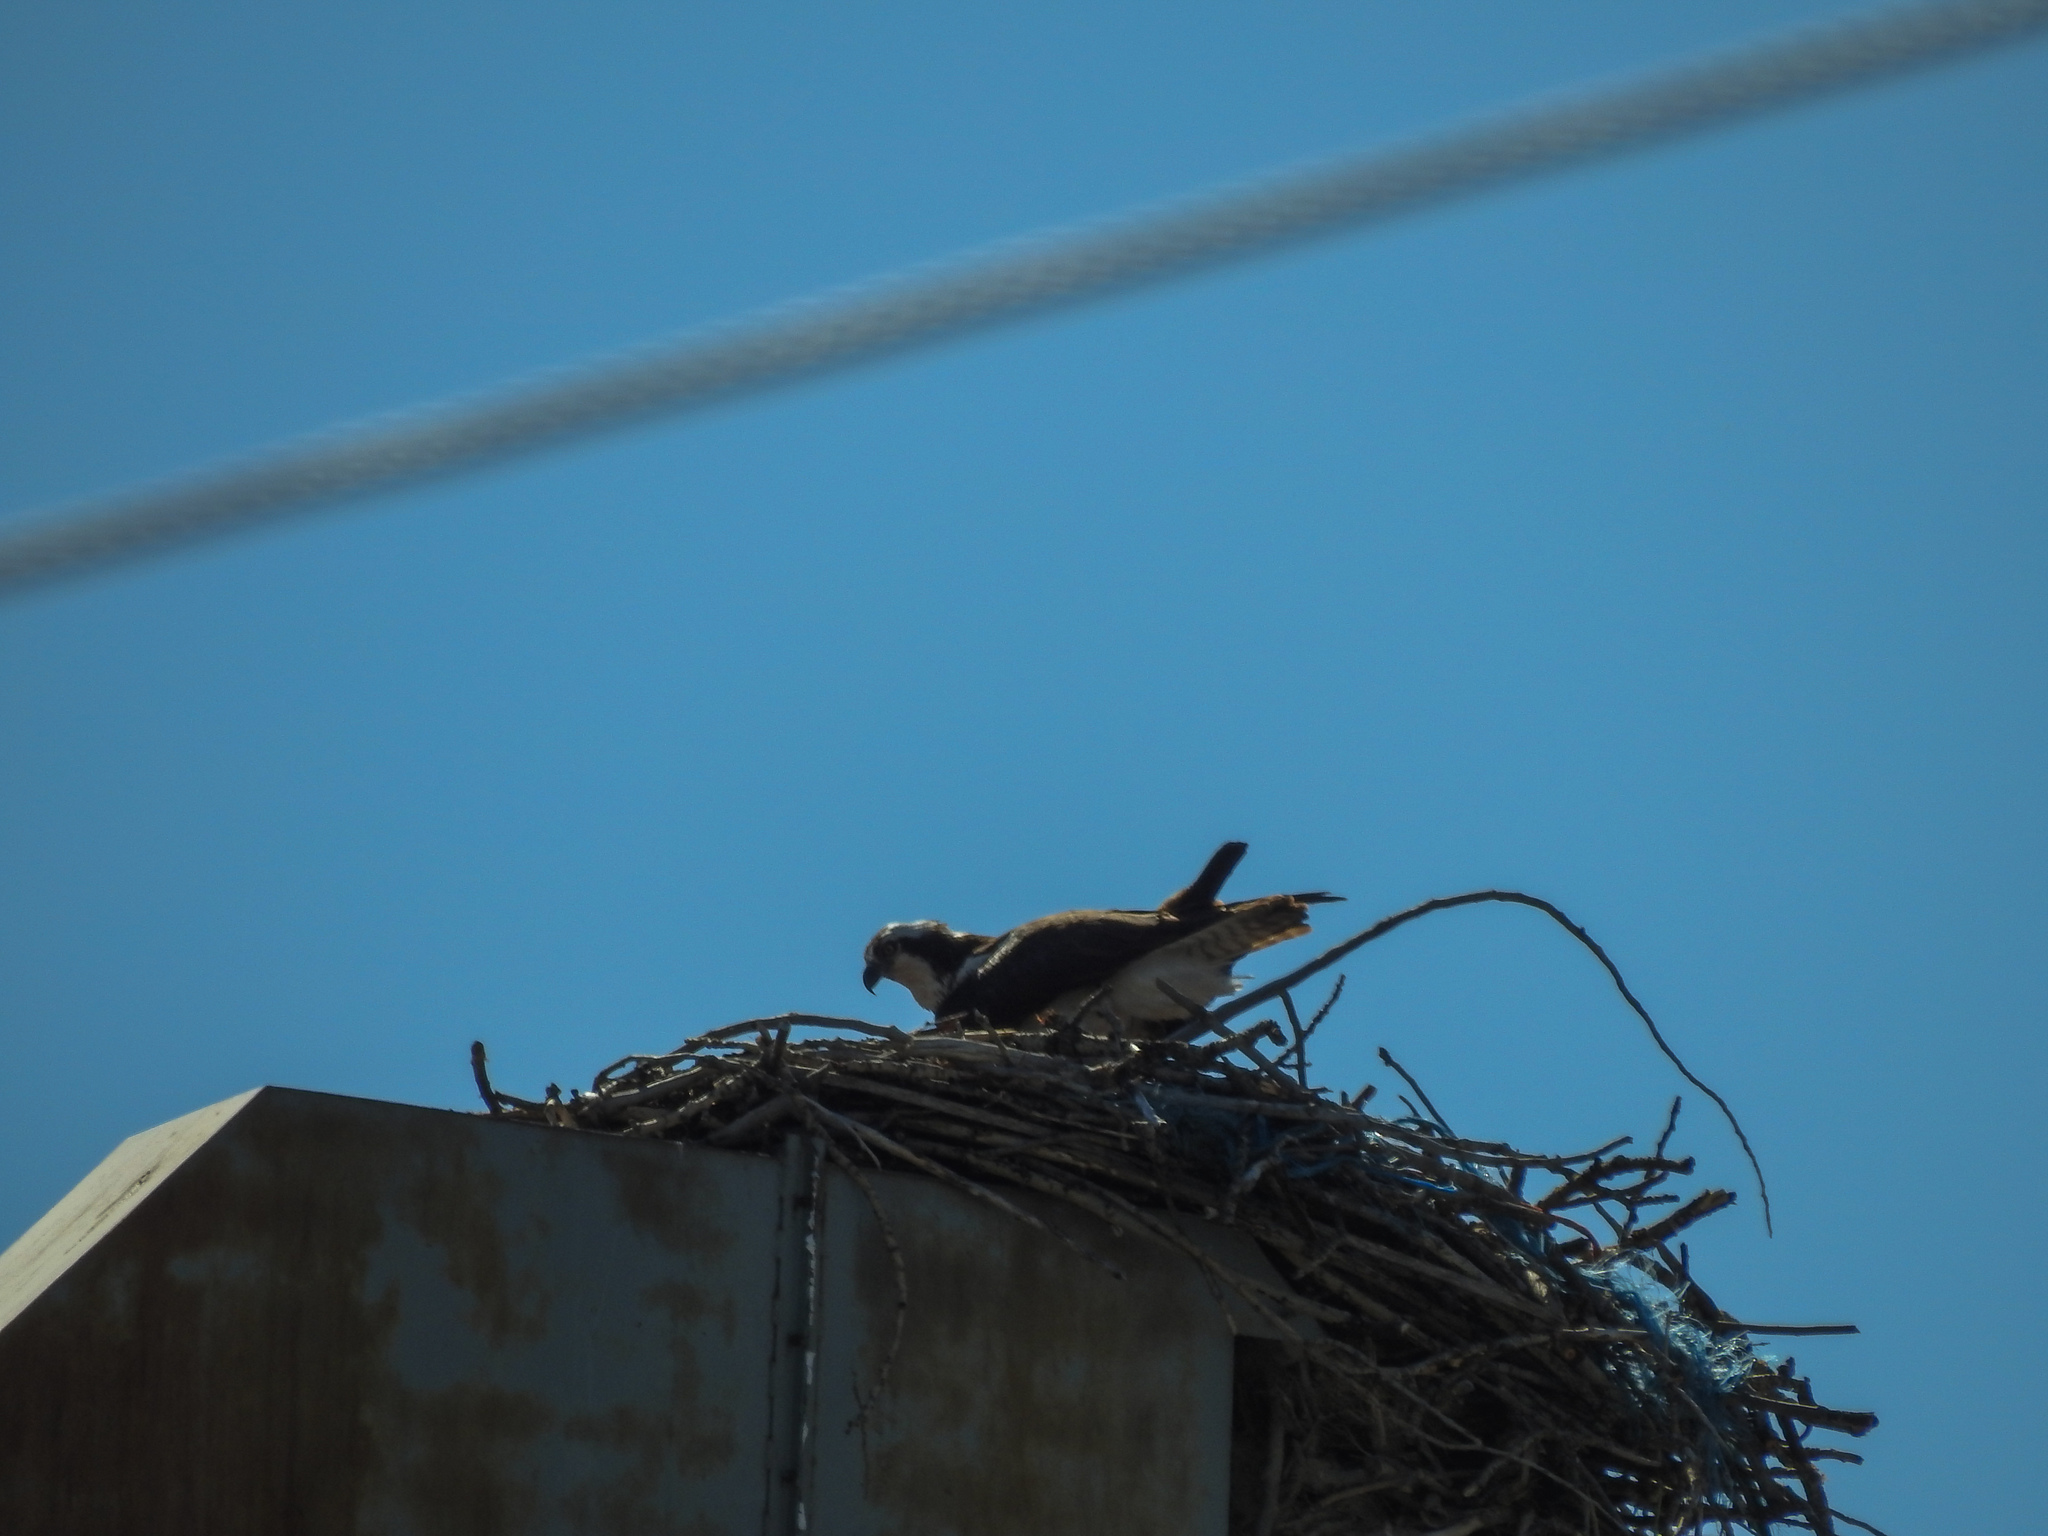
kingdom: Animalia
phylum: Chordata
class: Aves
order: Accipitriformes
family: Pandionidae
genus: Pandion
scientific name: Pandion haliaetus
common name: Osprey
